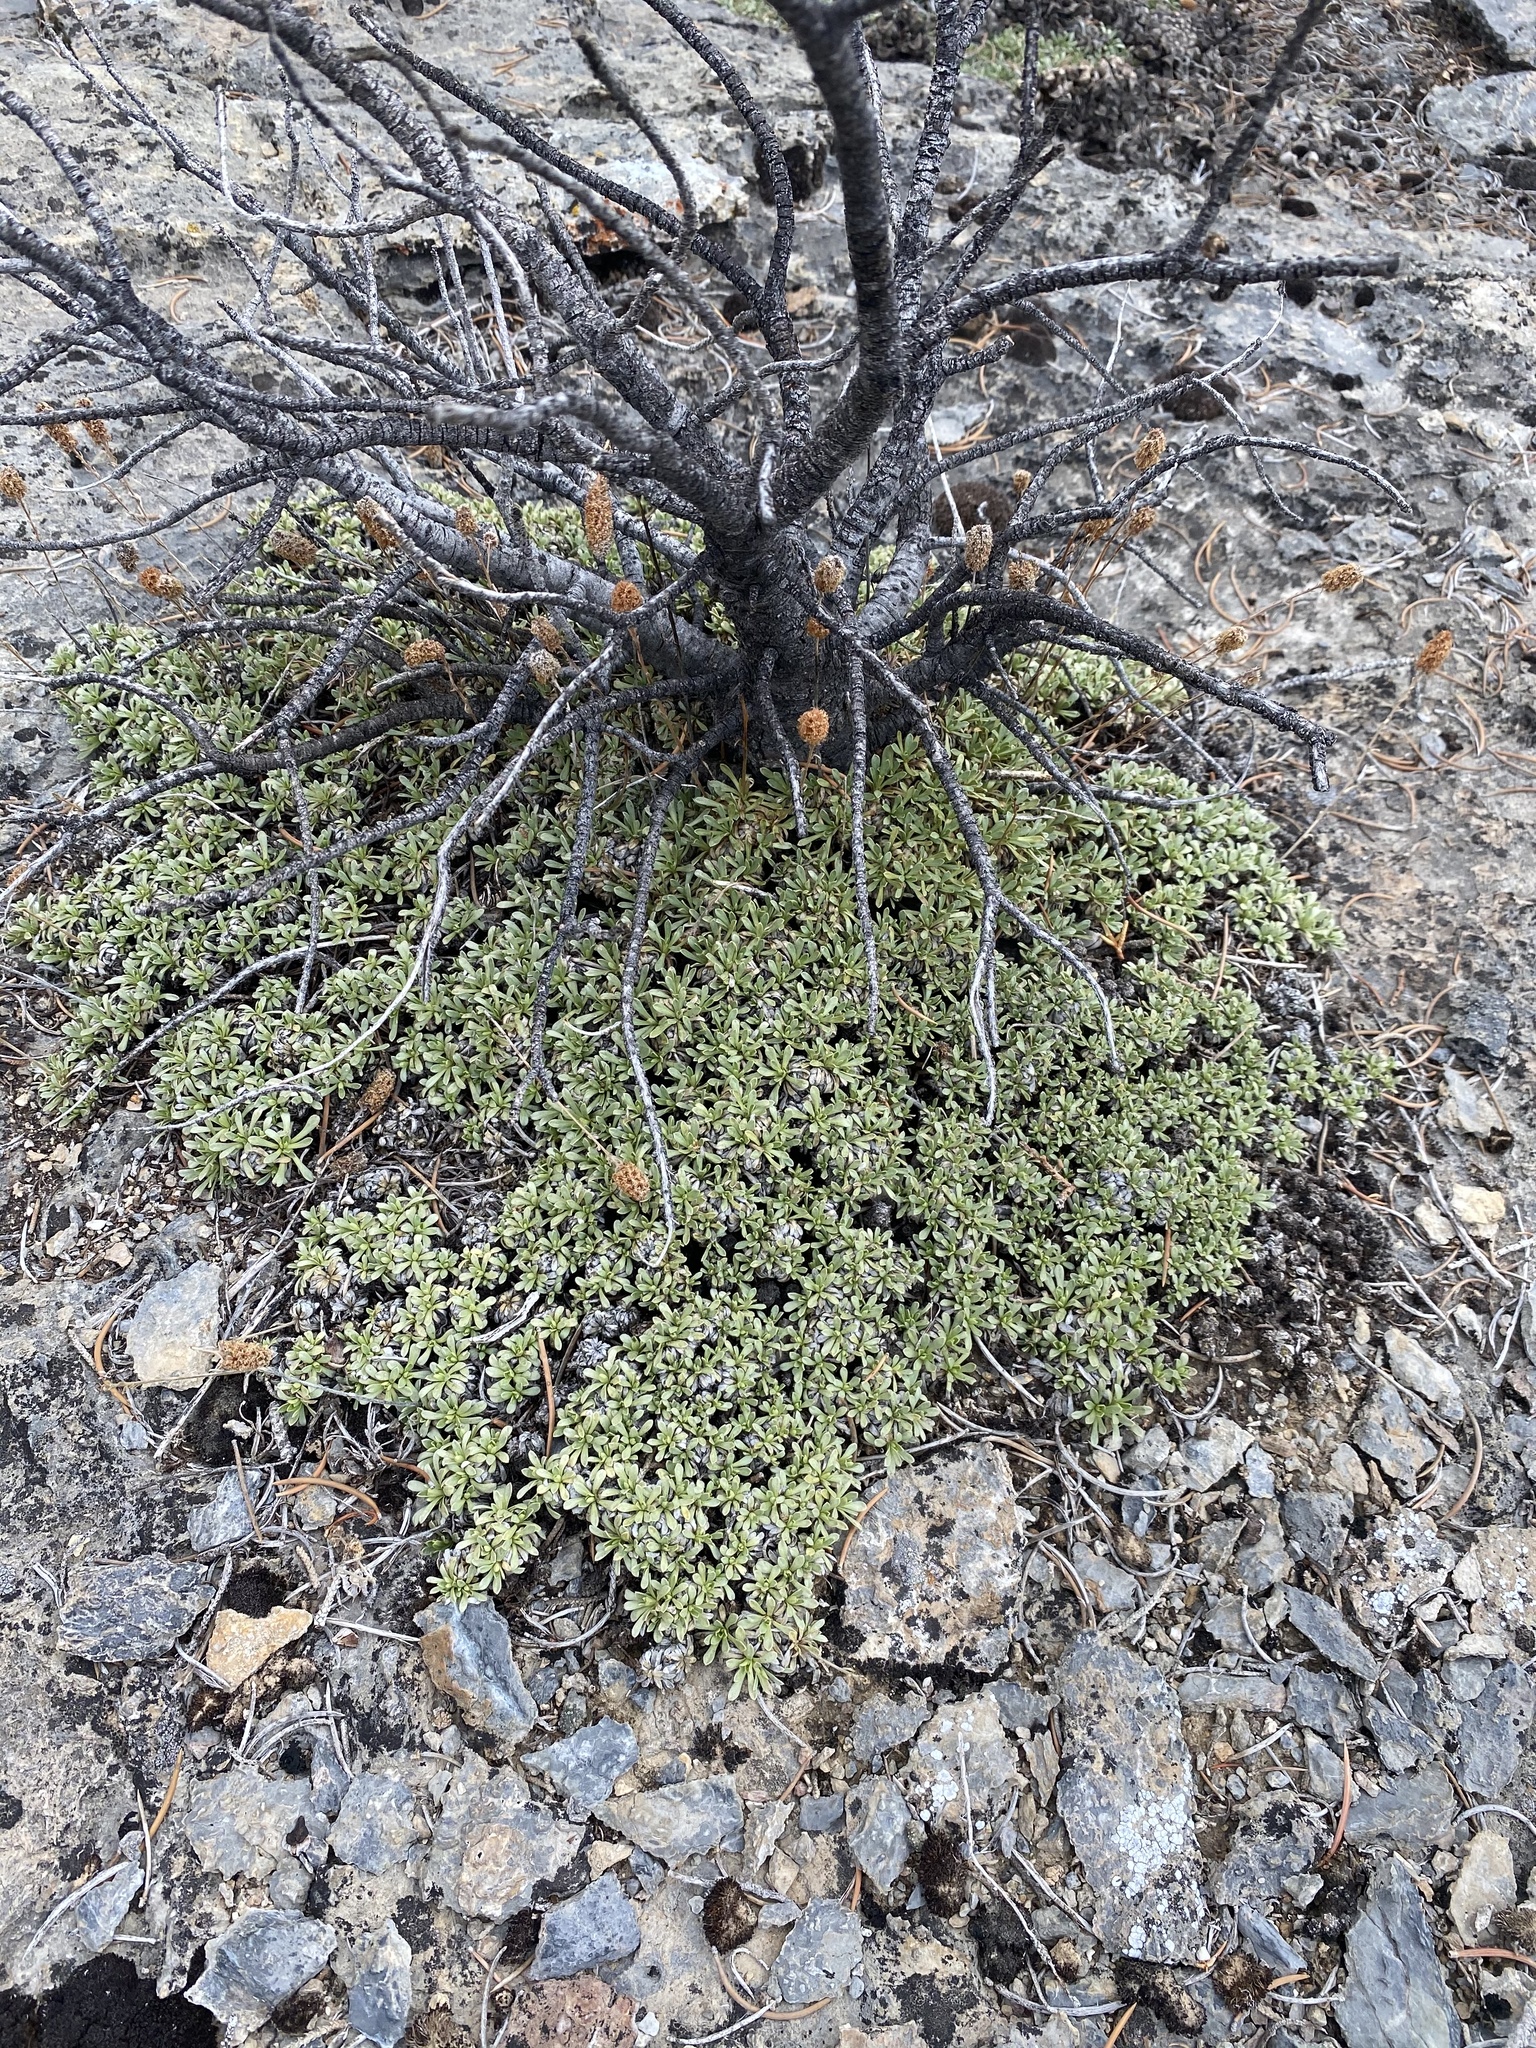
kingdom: Plantae
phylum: Tracheophyta
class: Magnoliopsida
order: Rosales
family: Rosaceae
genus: Petrophytum
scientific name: Petrophytum caespitosum
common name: Mat rockspirea
